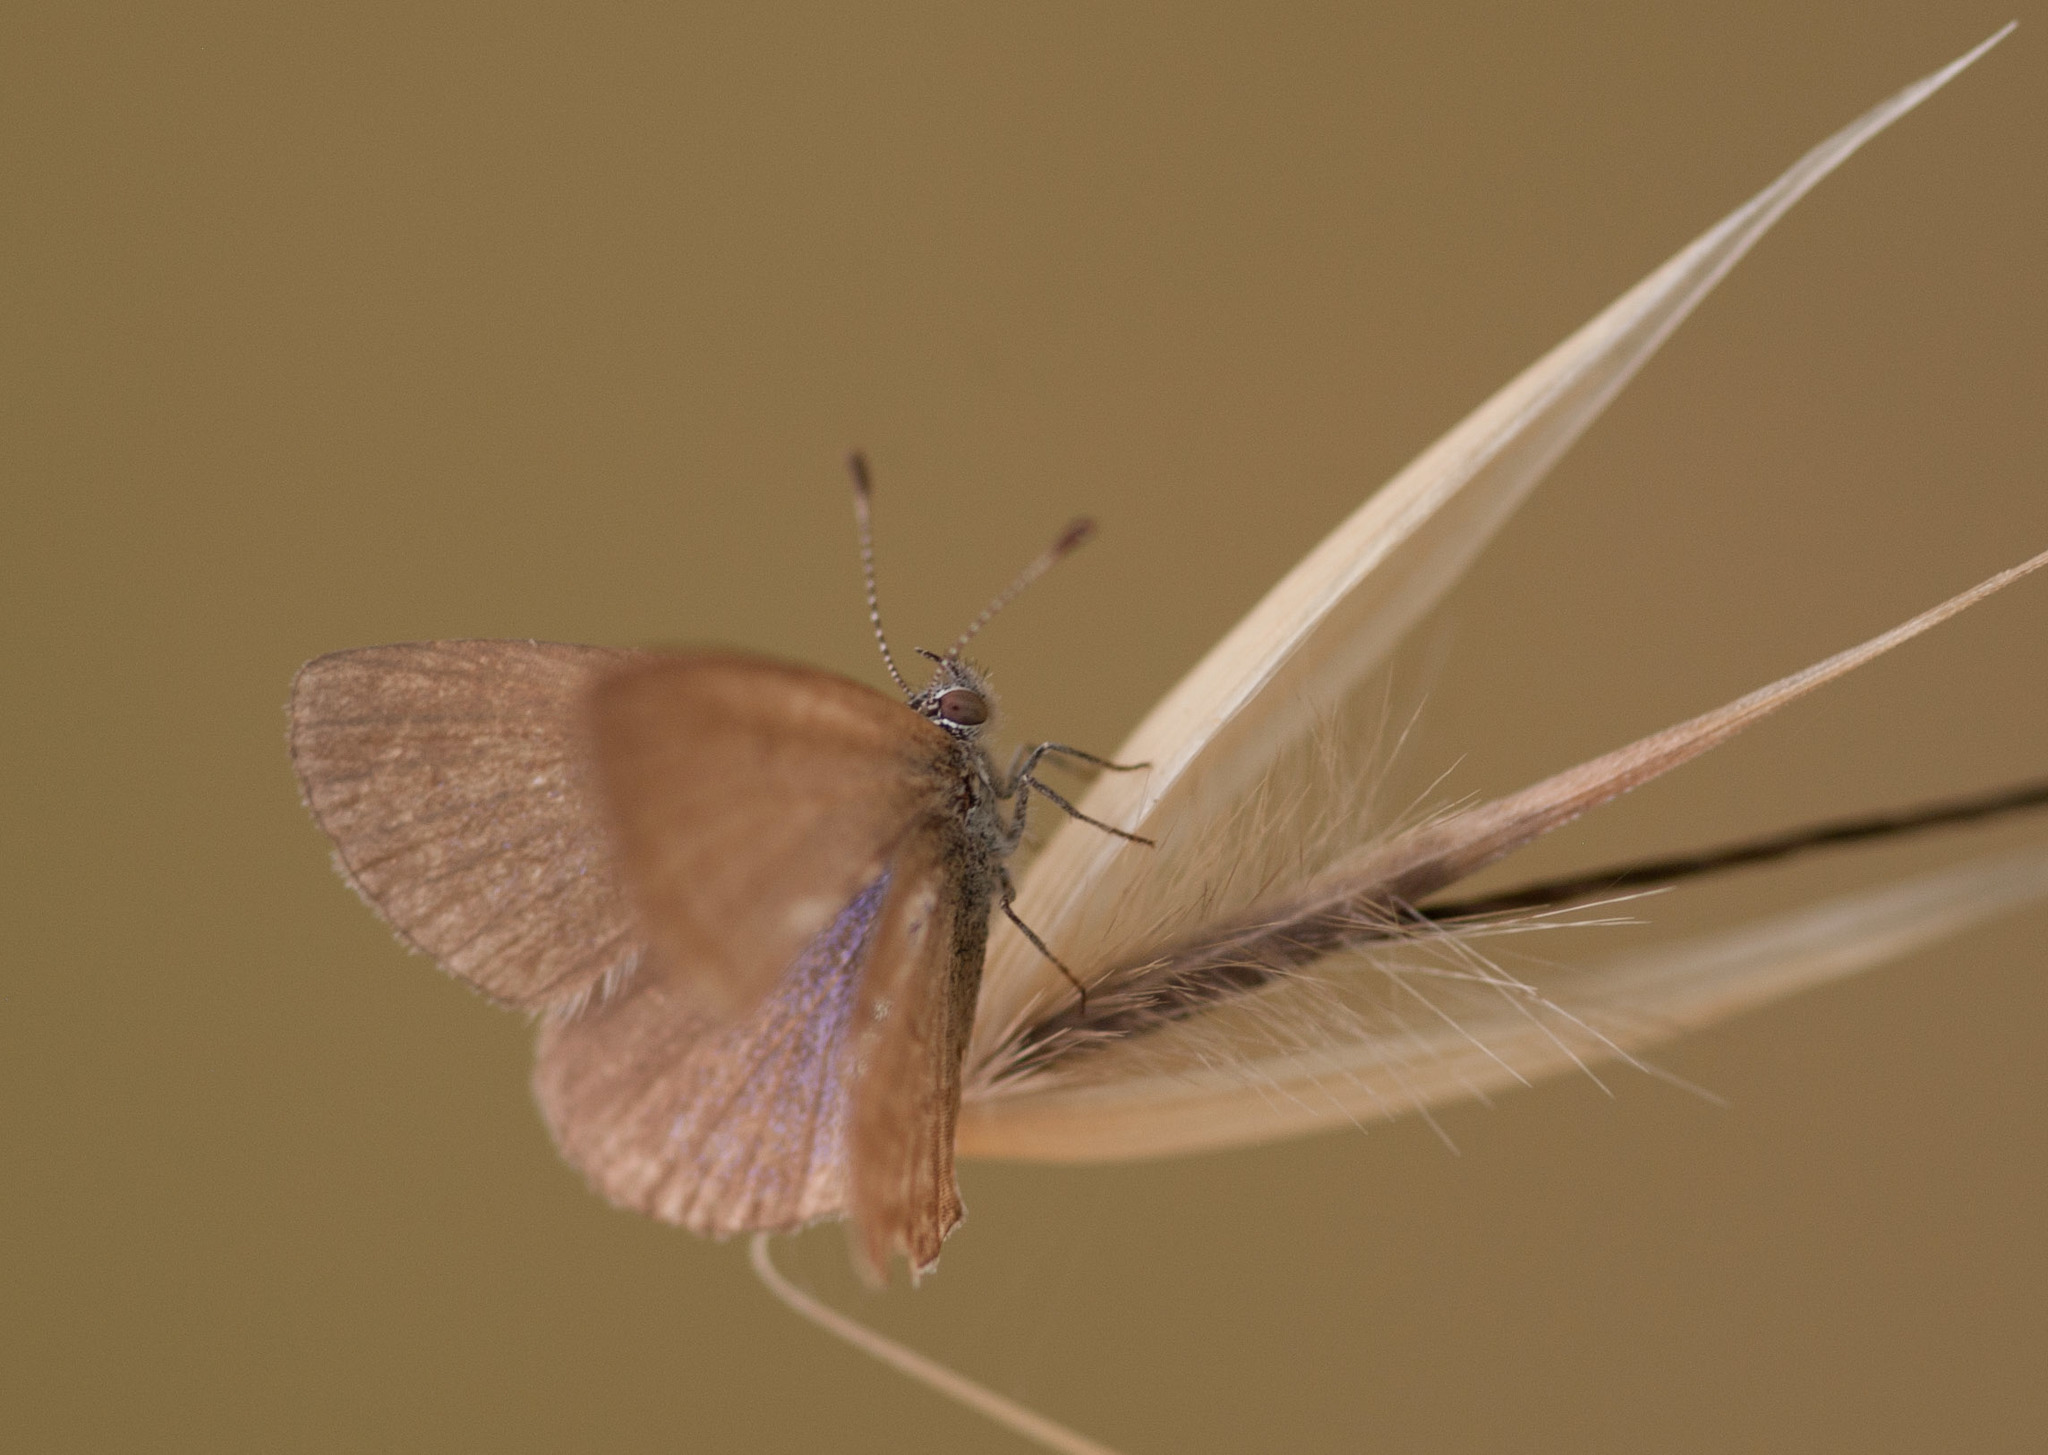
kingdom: Animalia
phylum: Arthropoda
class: Insecta
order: Lepidoptera
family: Lycaenidae
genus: Zizina
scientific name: Zizina labradus
